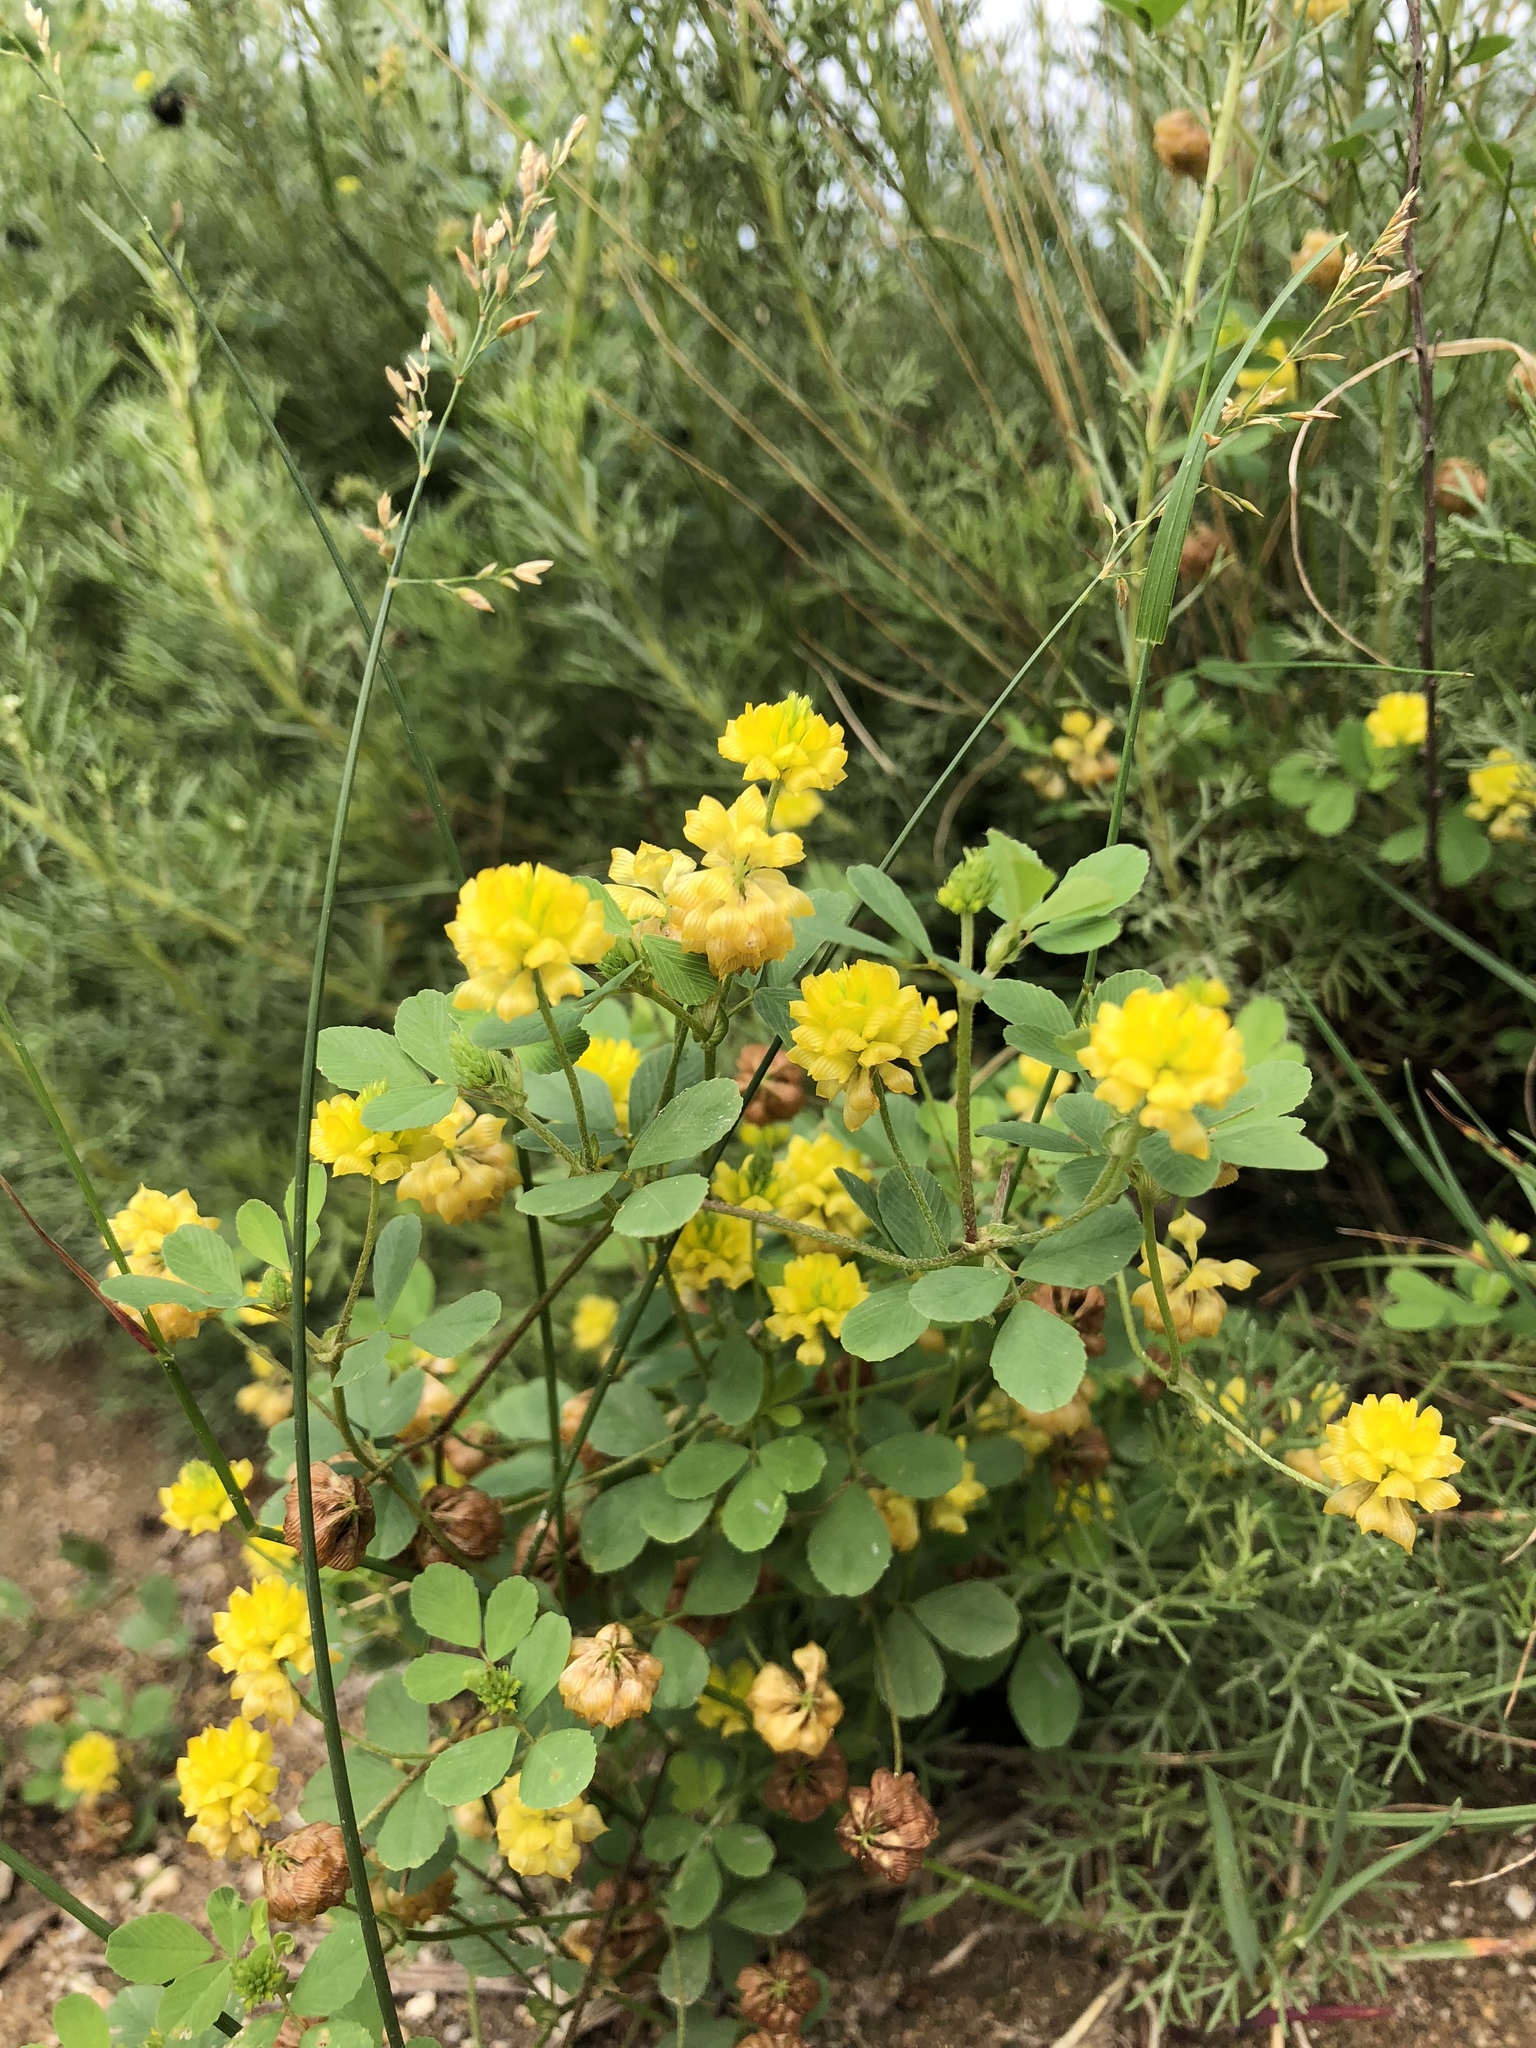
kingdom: Plantae
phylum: Tracheophyta
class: Magnoliopsida
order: Fabales
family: Fabaceae
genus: Trifolium
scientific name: Trifolium campestre
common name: Field clover
